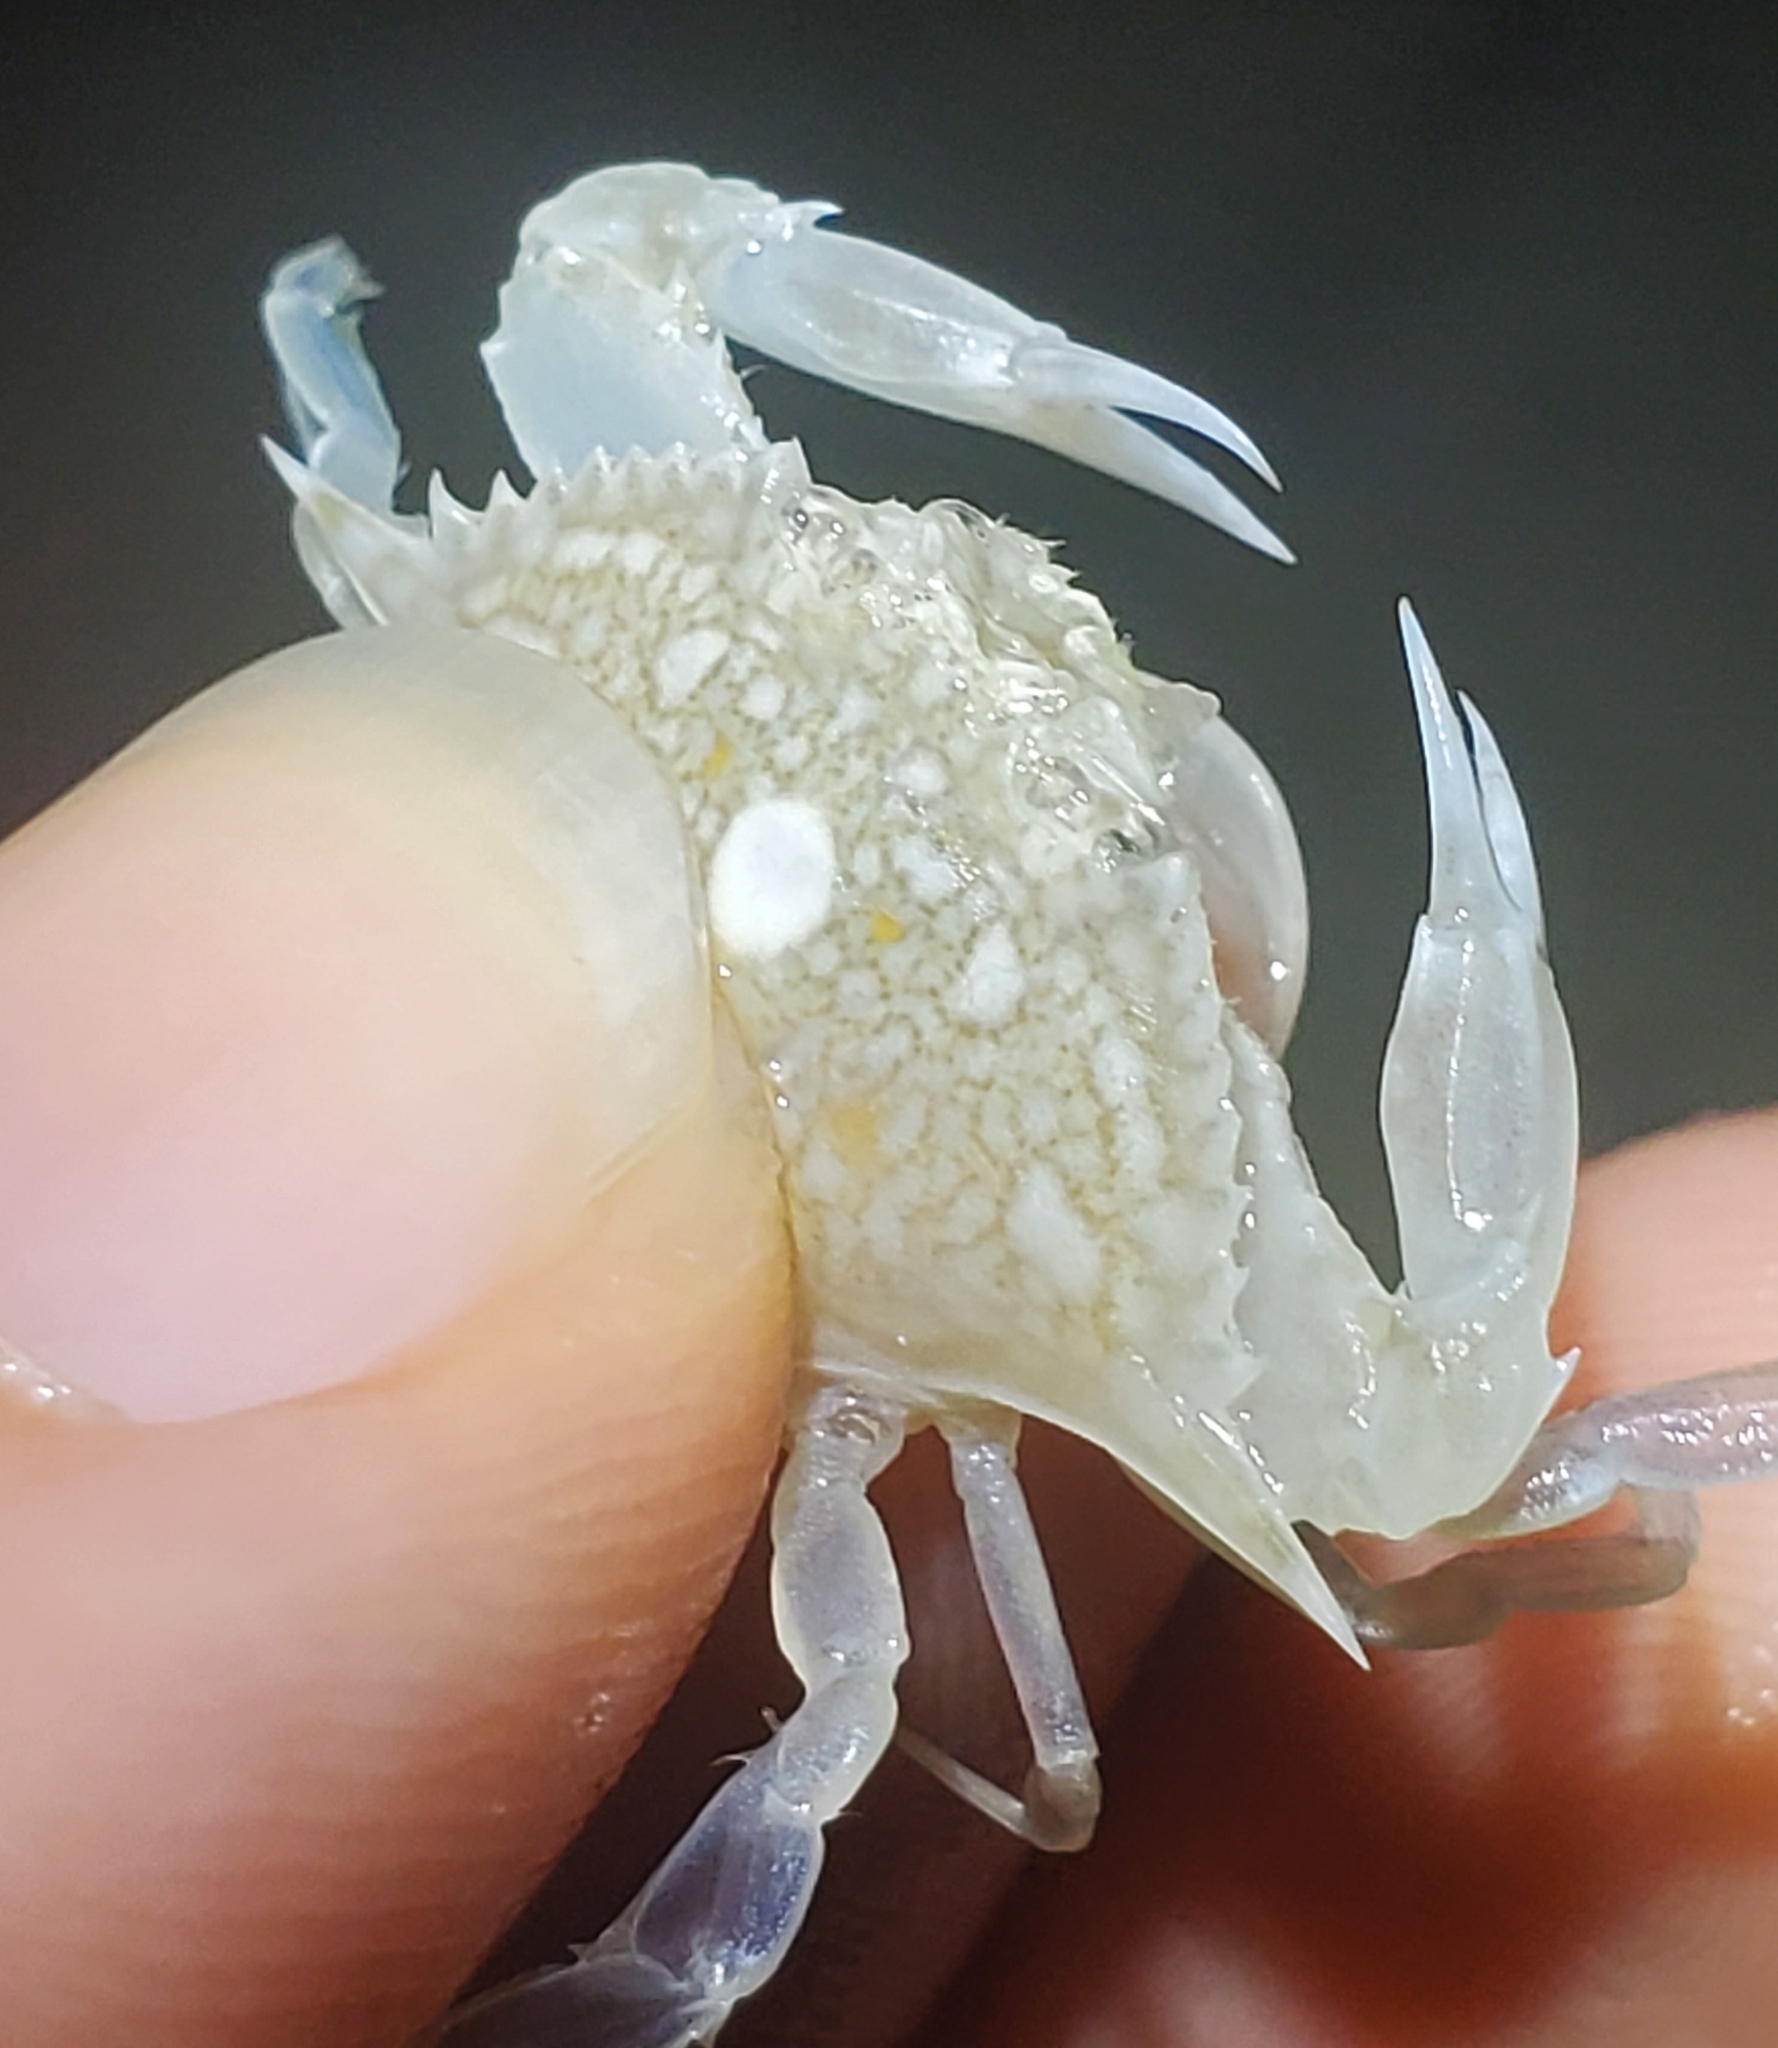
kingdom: Animalia
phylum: Arthropoda
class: Malacostraca
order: Decapoda
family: Portunidae
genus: Arenaeus
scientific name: Arenaeus cribrarius
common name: Speckled crab
